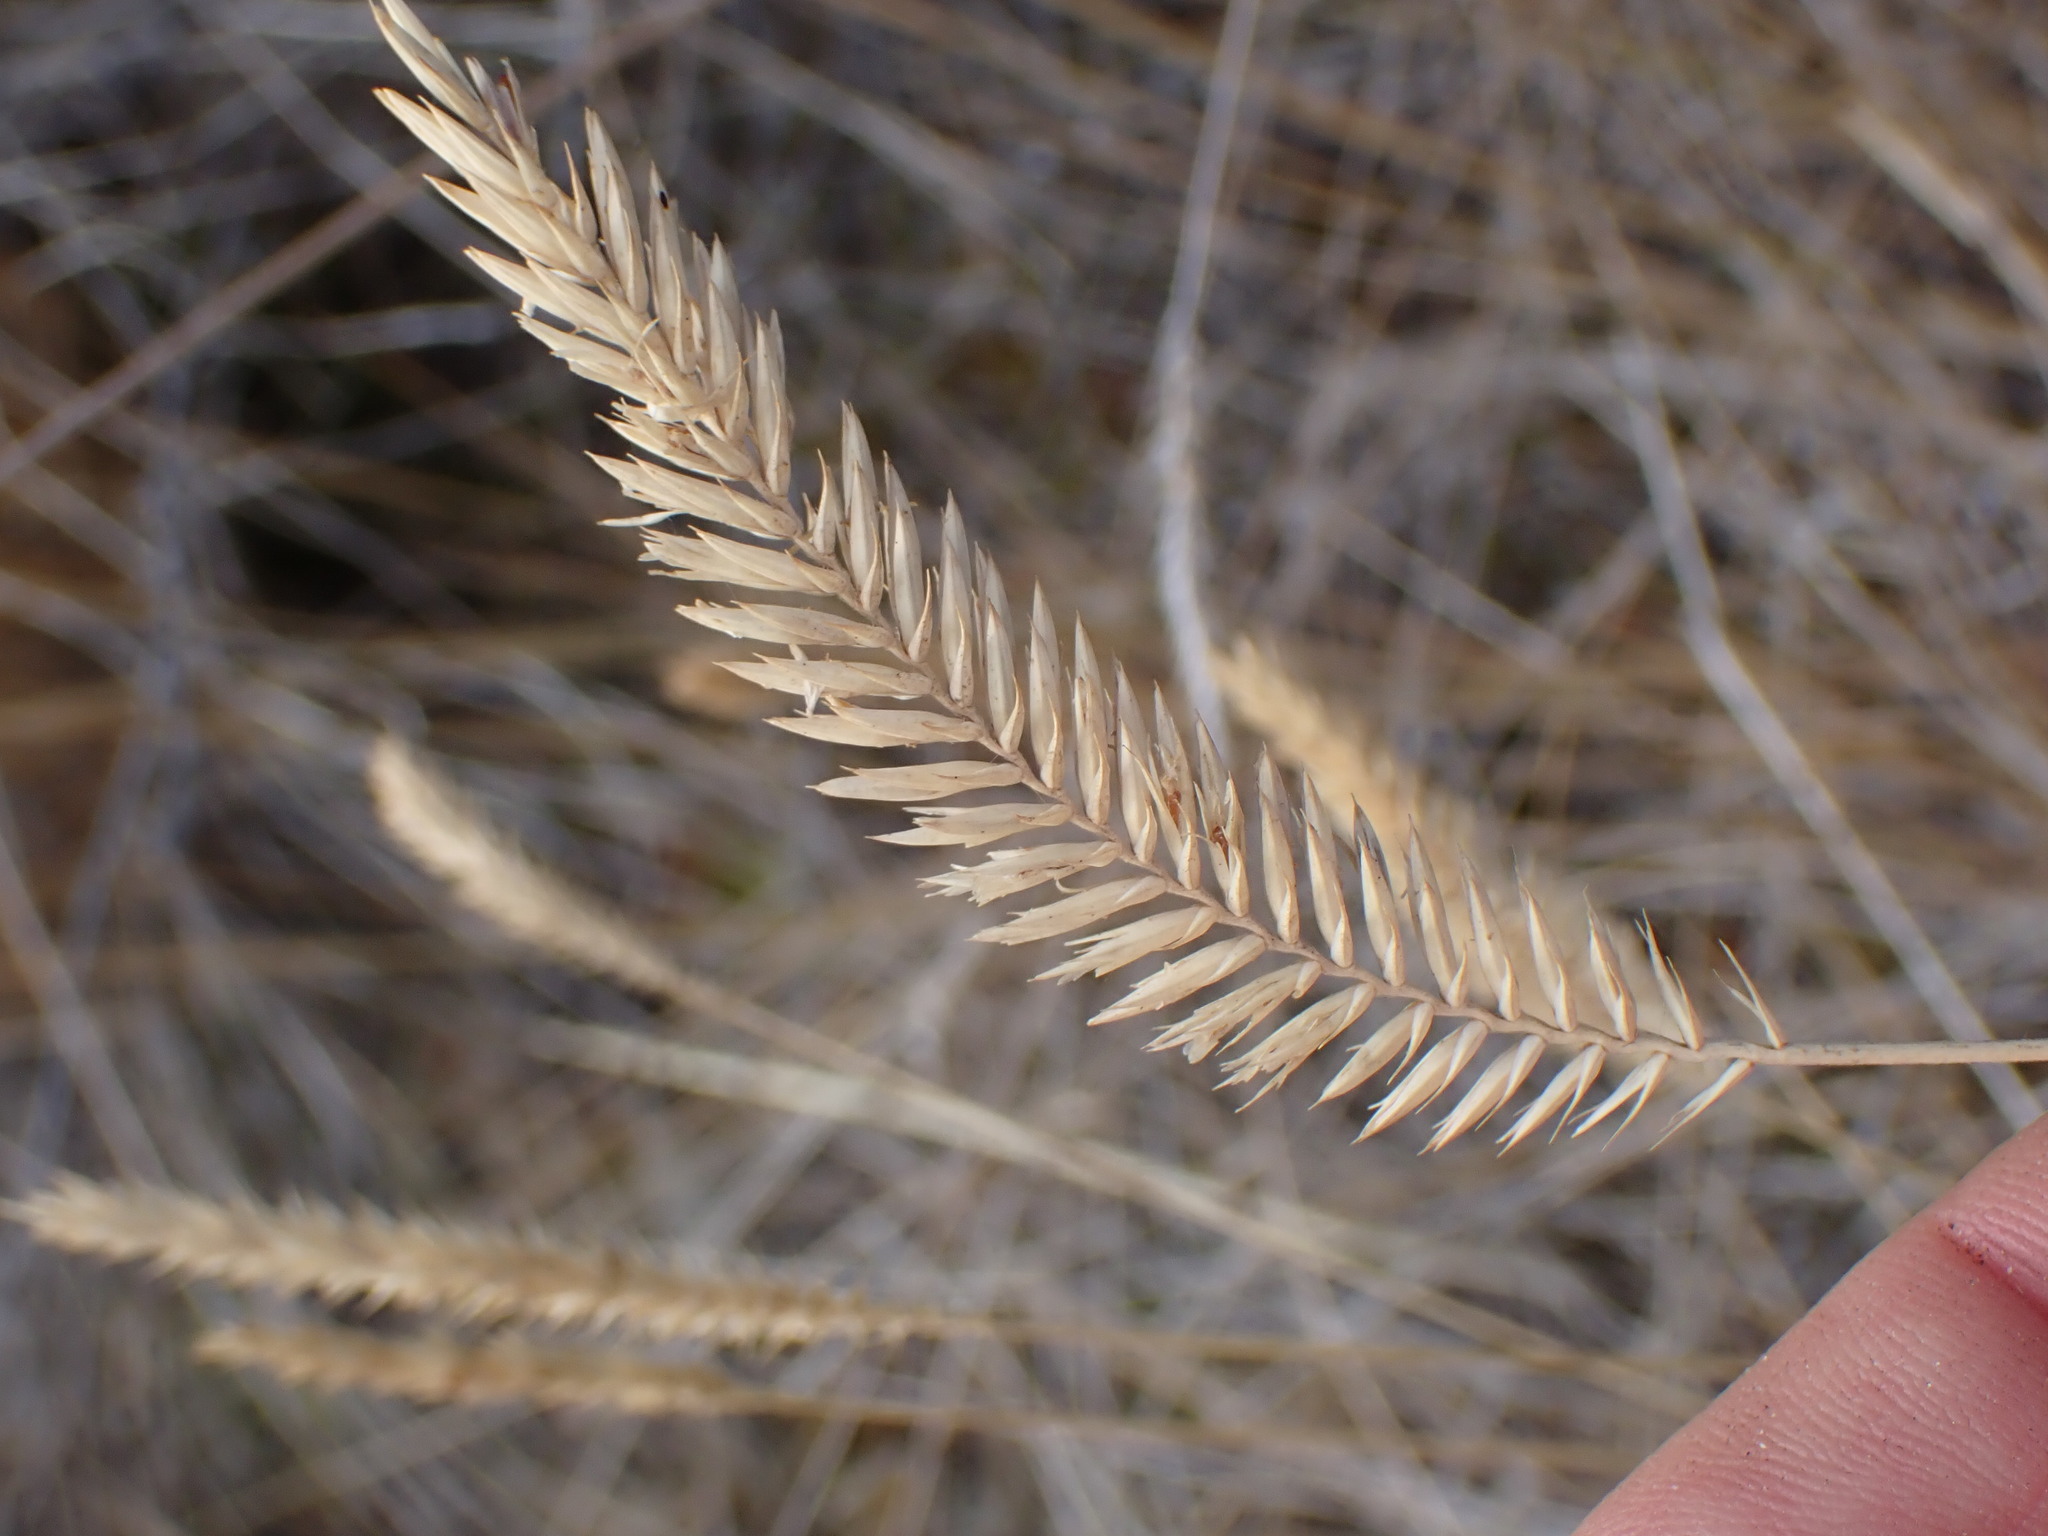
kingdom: Plantae
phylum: Tracheophyta
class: Liliopsida
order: Poales
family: Poaceae
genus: Agropyron
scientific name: Agropyron cristatum
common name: Crested wheatgrass
